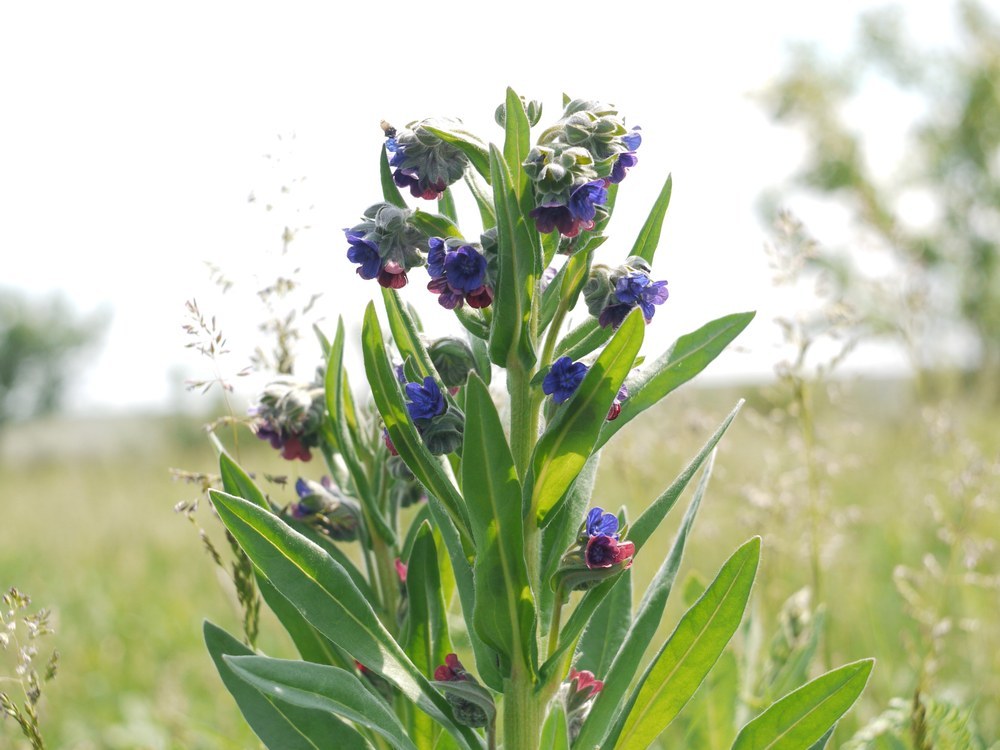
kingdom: Plantae
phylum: Tracheophyta
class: Magnoliopsida
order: Boraginales
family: Boraginaceae
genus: Cynoglossum
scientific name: Cynoglossum officinale
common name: Hound's-tongue
